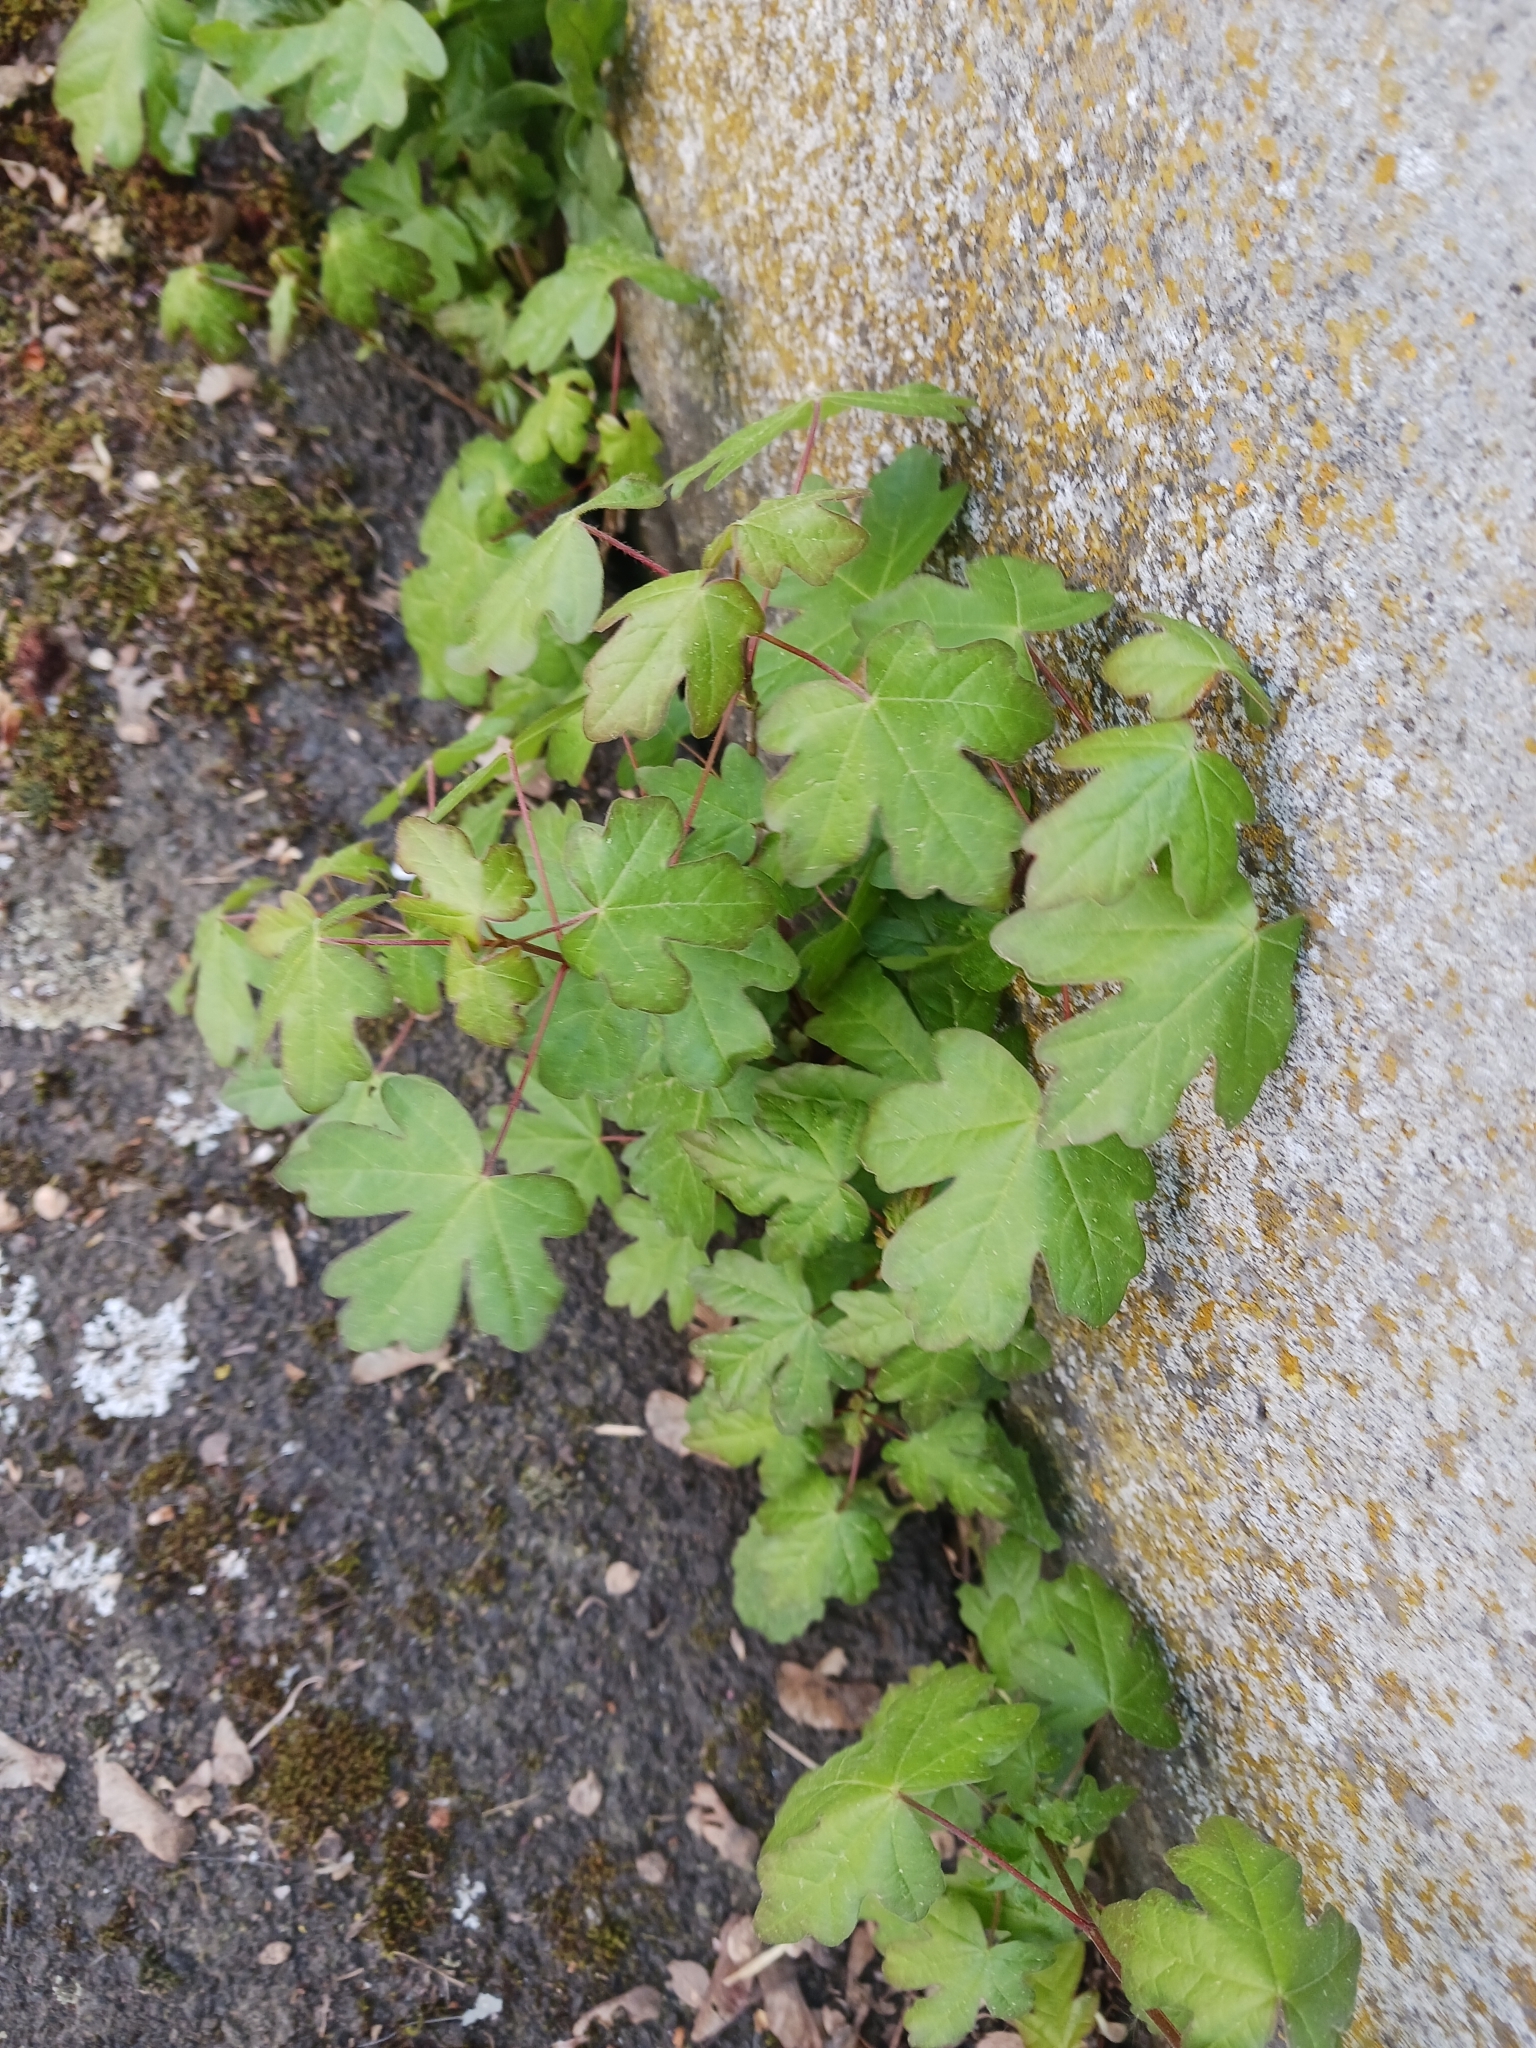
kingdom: Plantae
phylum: Tracheophyta
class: Magnoliopsida
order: Sapindales
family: Sapindaceae
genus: Acer
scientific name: Acer campestre
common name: Field maple
